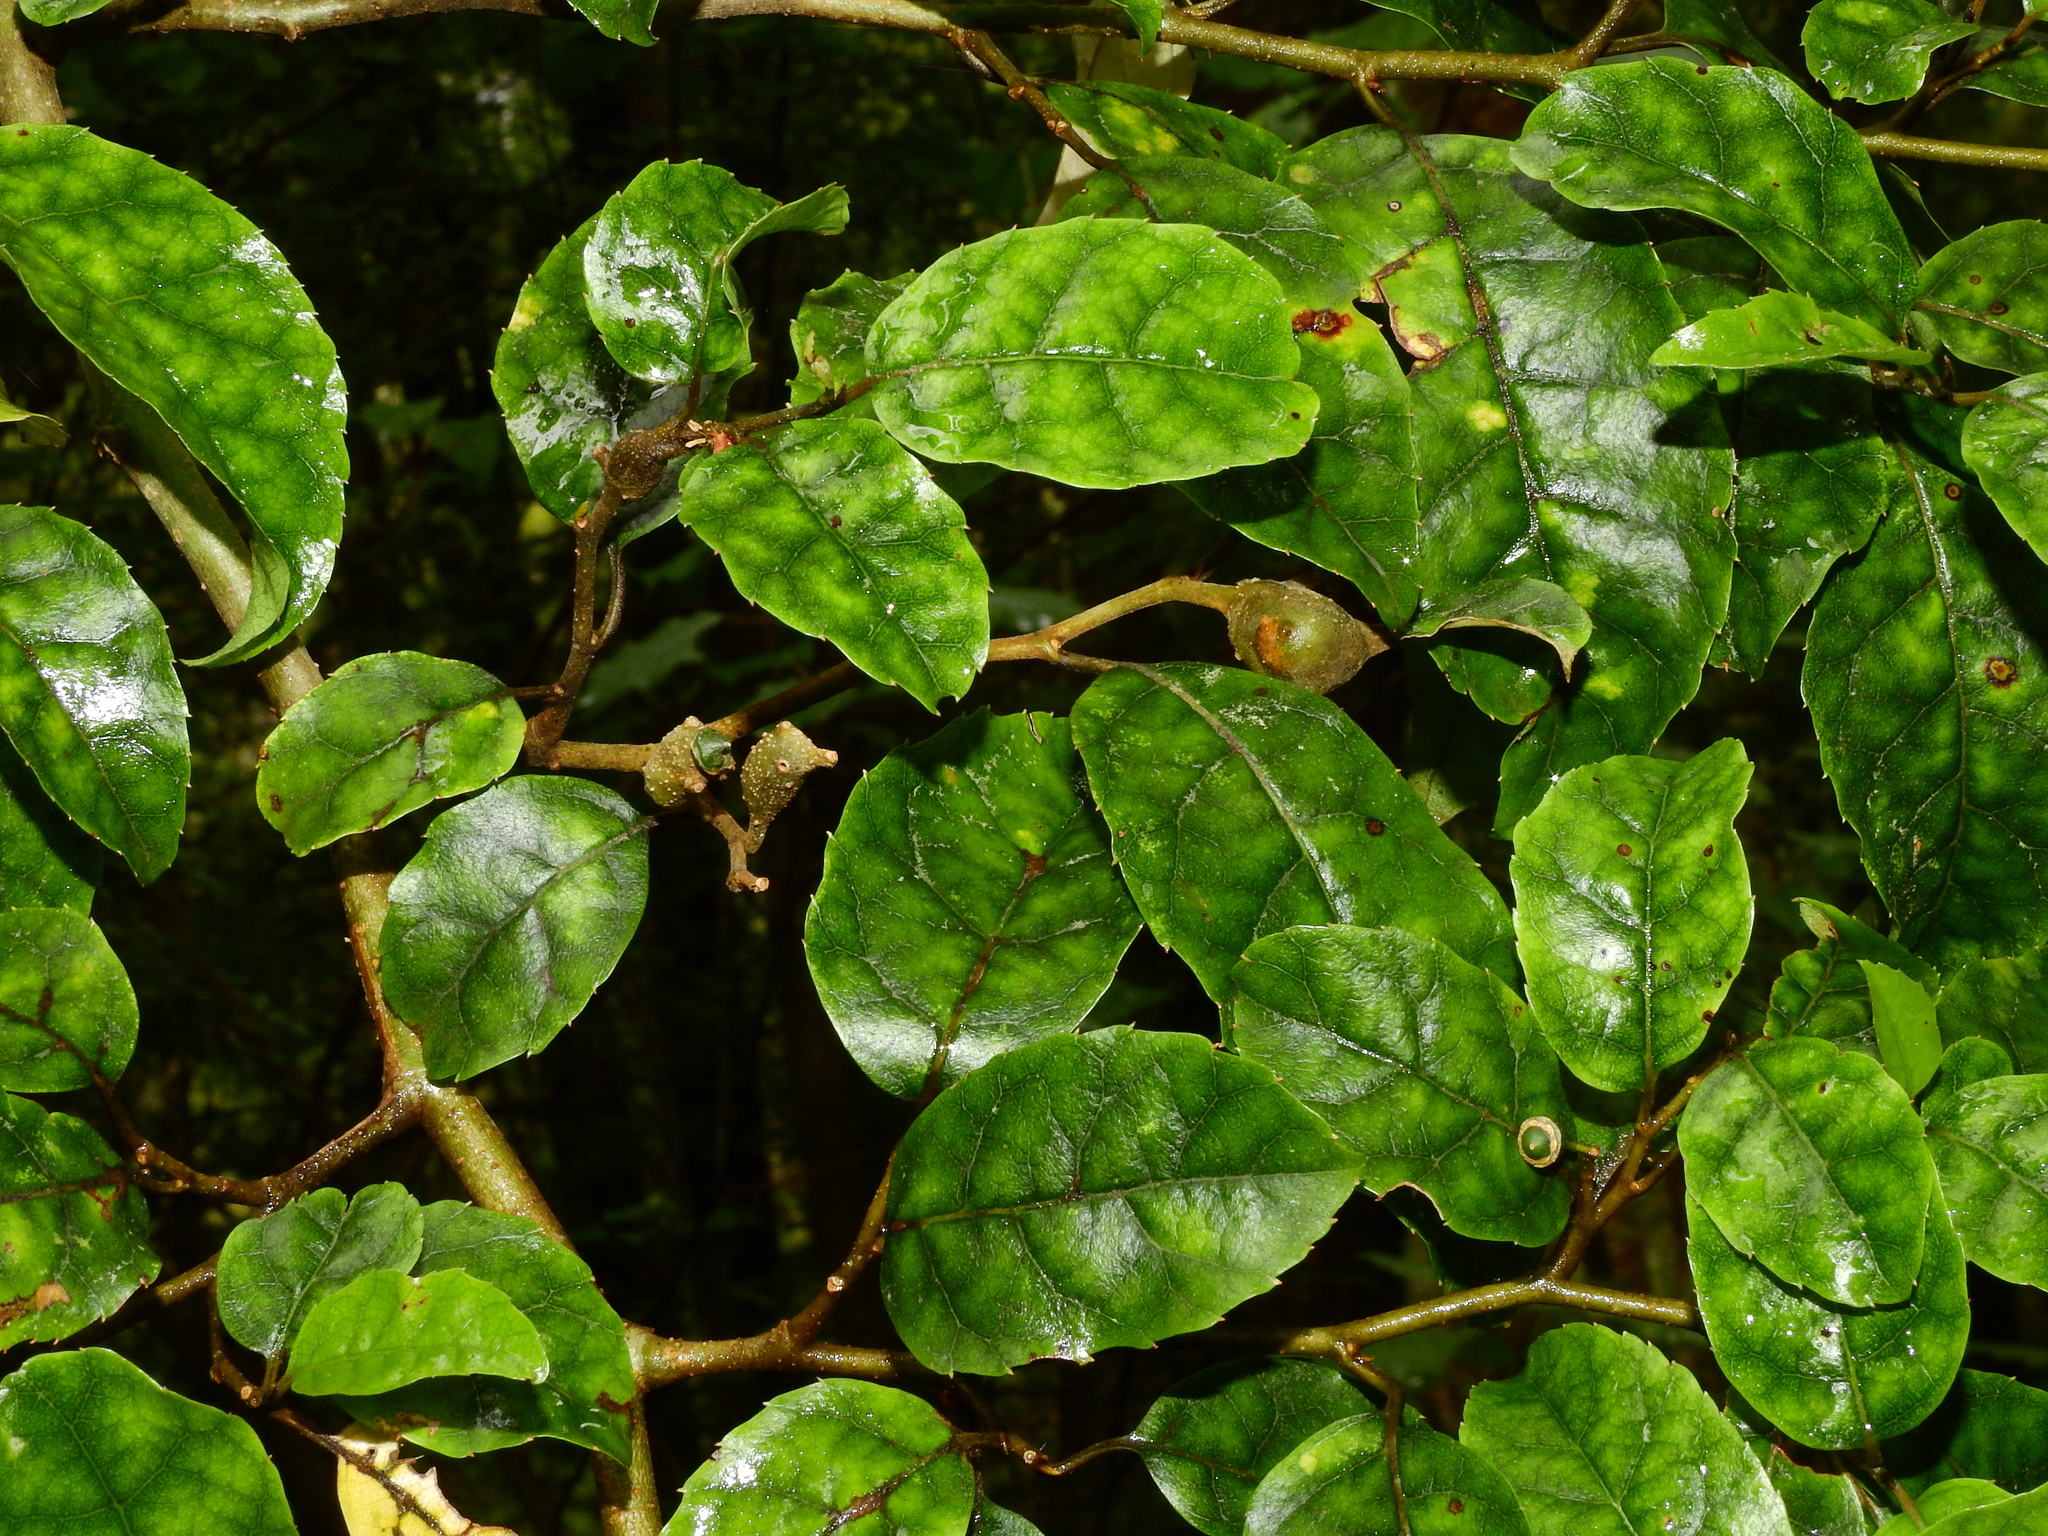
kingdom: Plantae
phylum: Tracheophyta
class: Magnoliopsida
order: Asterales
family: Rousseaceae
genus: Carpodetus
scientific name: Carpodetus serratus
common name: White mapau
